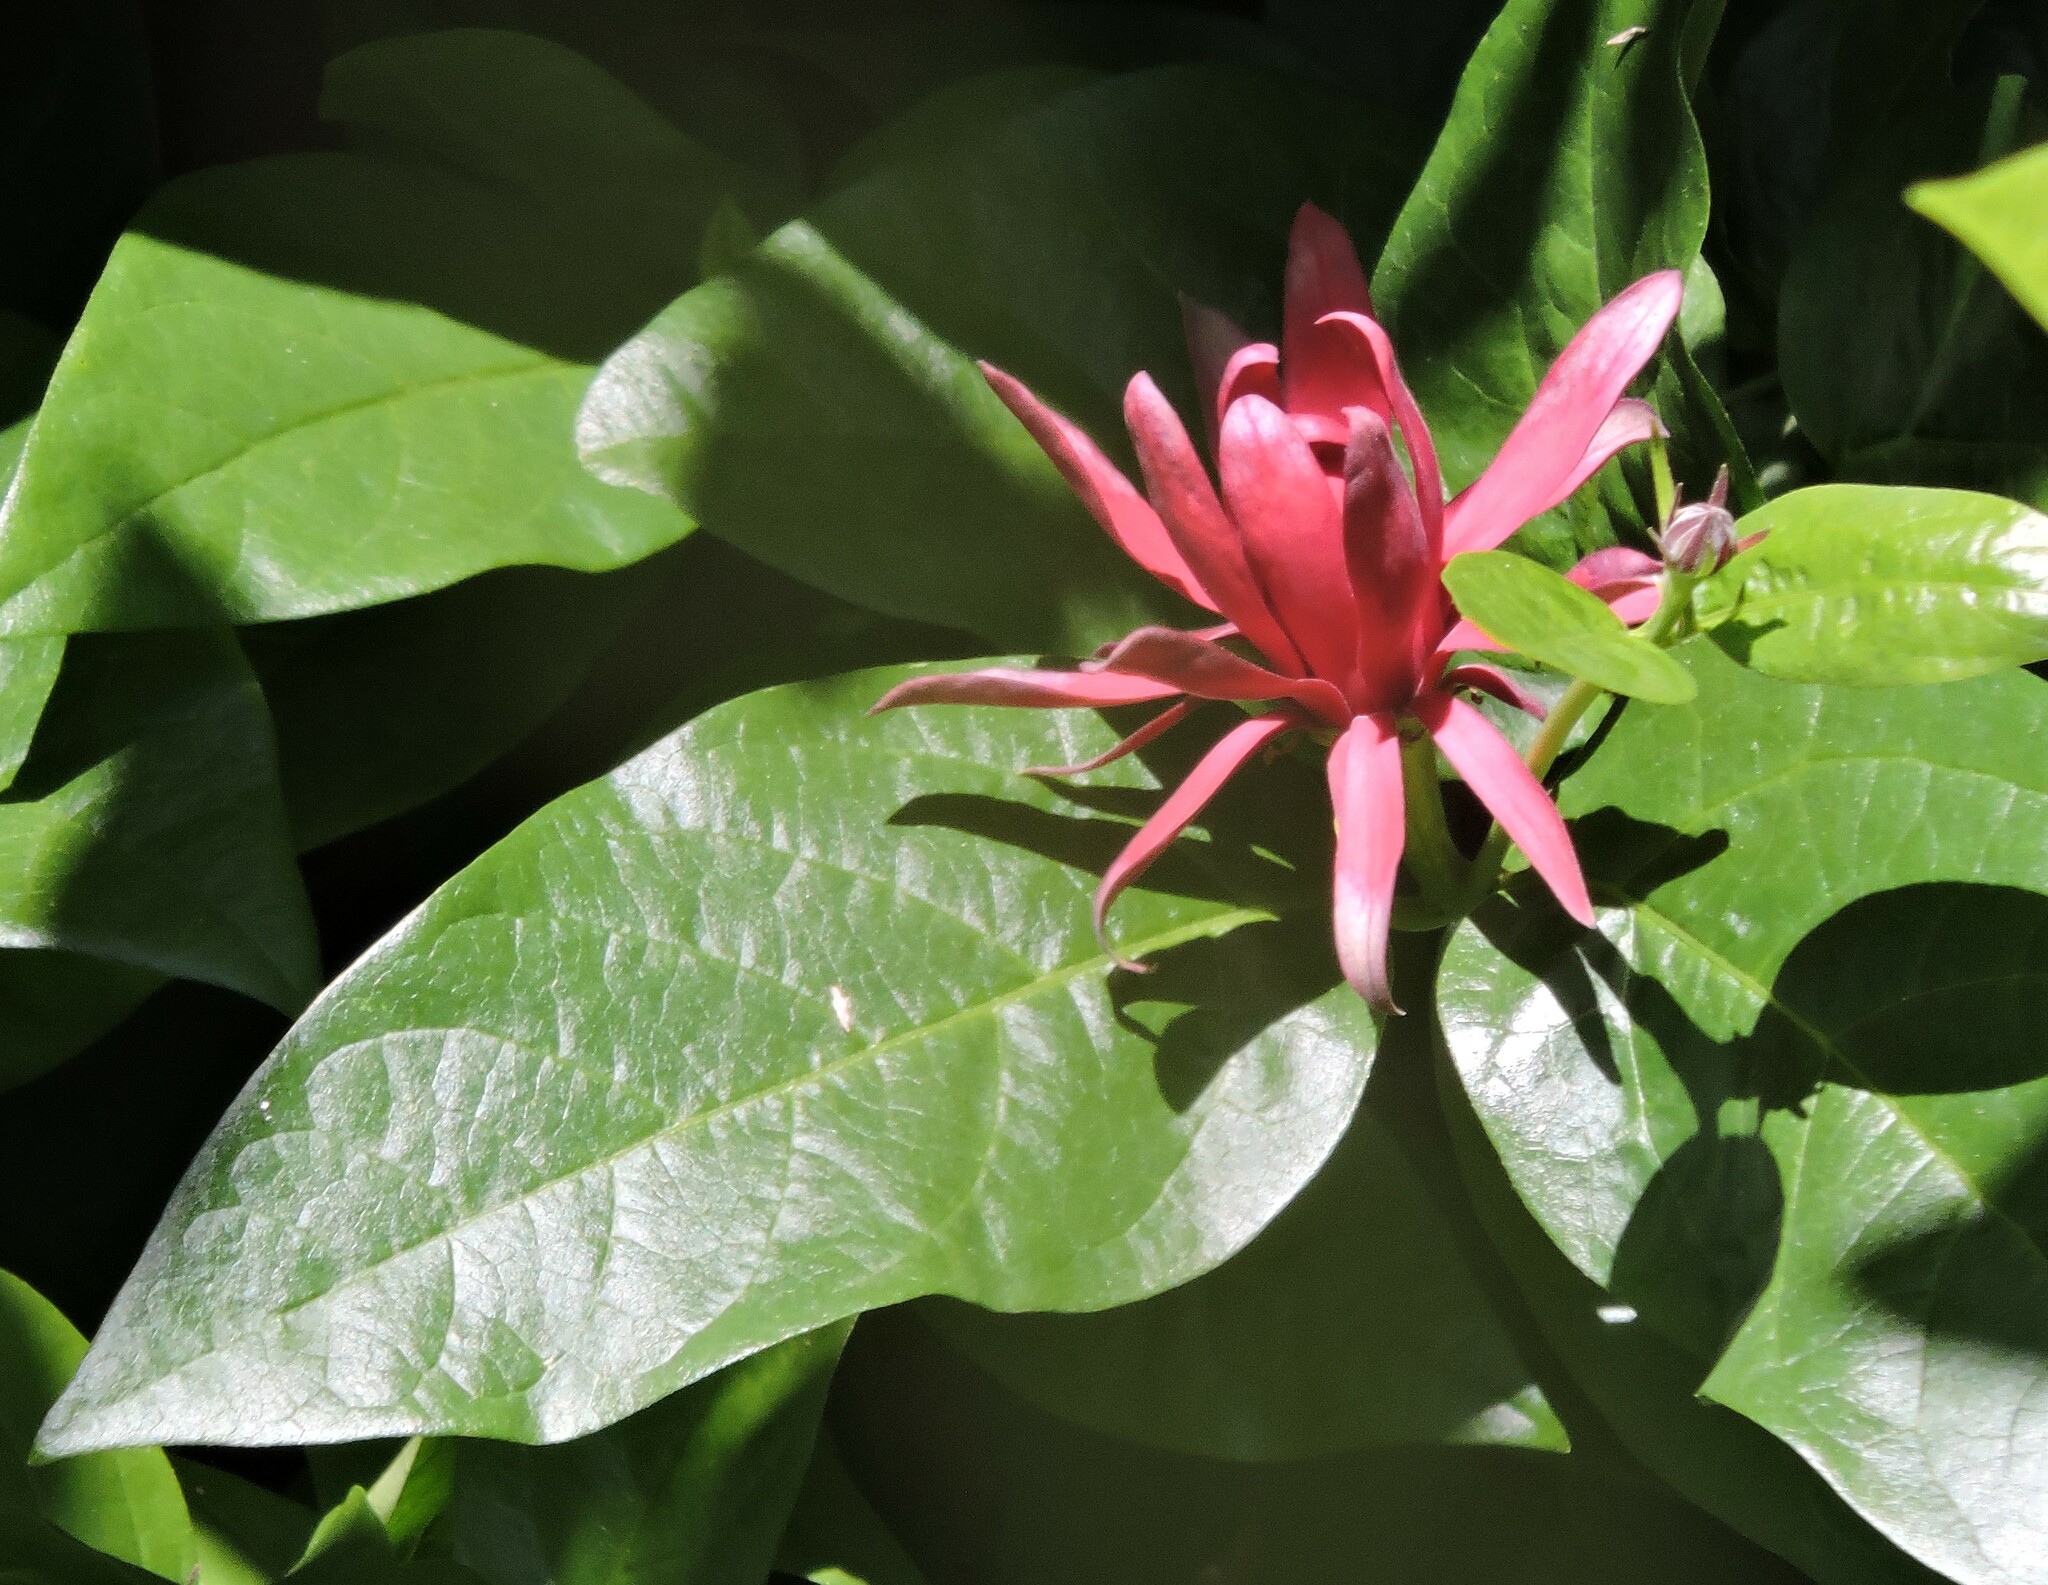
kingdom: Plantae
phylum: Tracheophyta
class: Magnoliopsida
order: Laurales
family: Calycanthaceae
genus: Calycanthus
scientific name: Calycanthus occidentalis
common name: California spicebush
